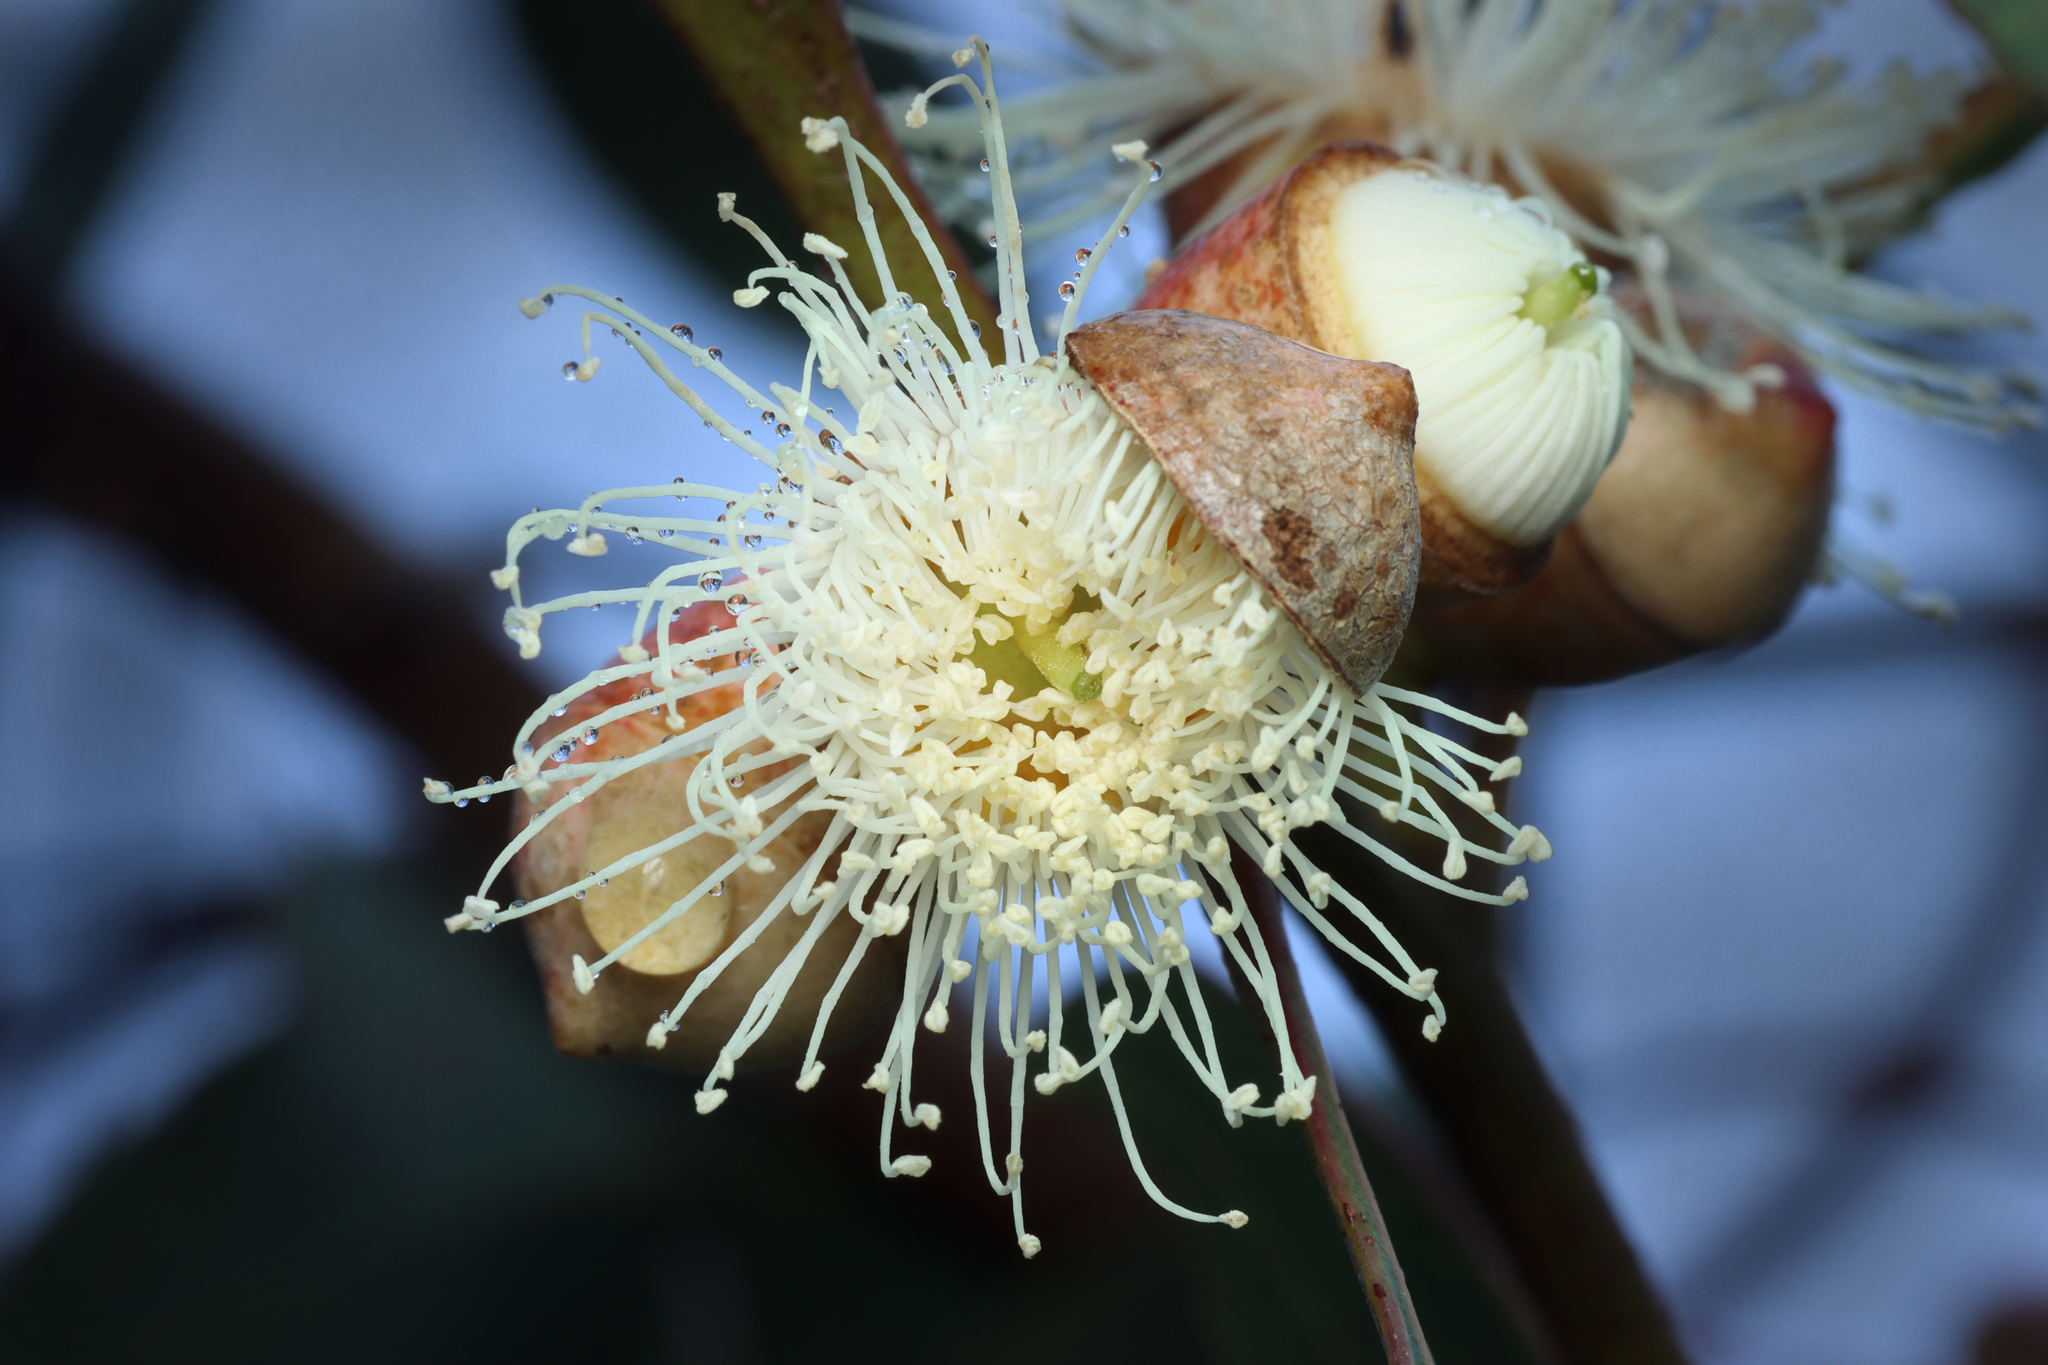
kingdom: Plantae
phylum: Tracheophyta
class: Magnoliopsida
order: Myrtales
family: Myrtaceae
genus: Eucalyptus
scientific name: Eucalyptus cosmophylla
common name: Bog-gum
